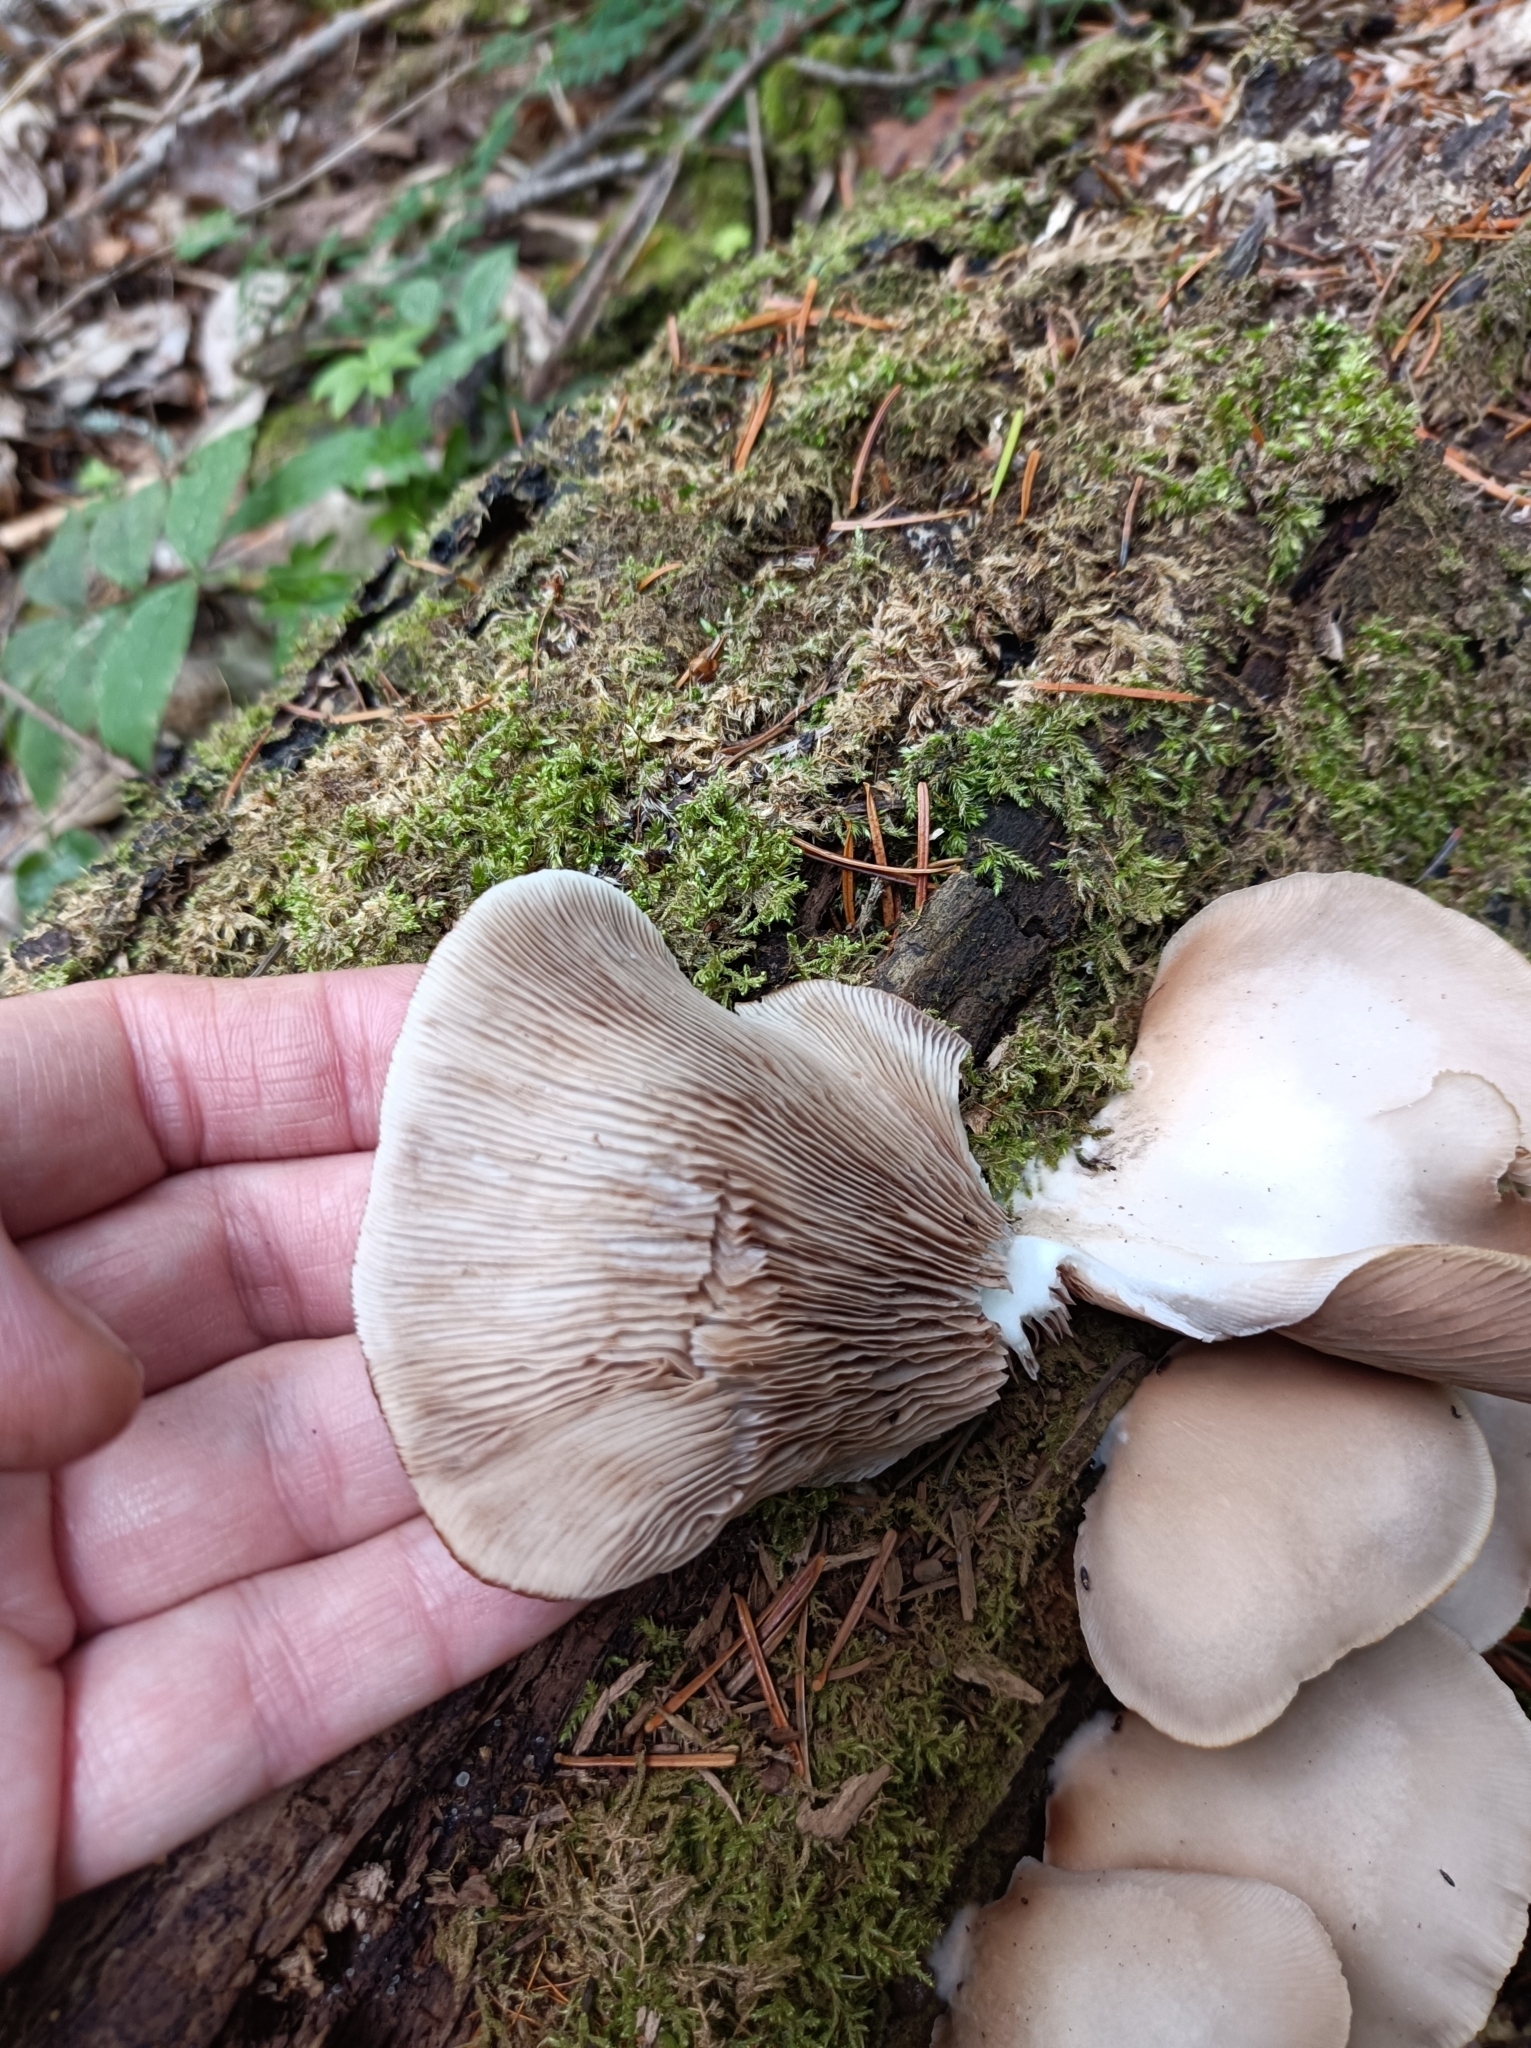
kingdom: Fungi
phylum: Basidiomycota
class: Agaricomycetes
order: Agaricales
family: Crepidotaceae
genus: Crepidotus
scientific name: Crepidotus applanatus
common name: Flat crep
